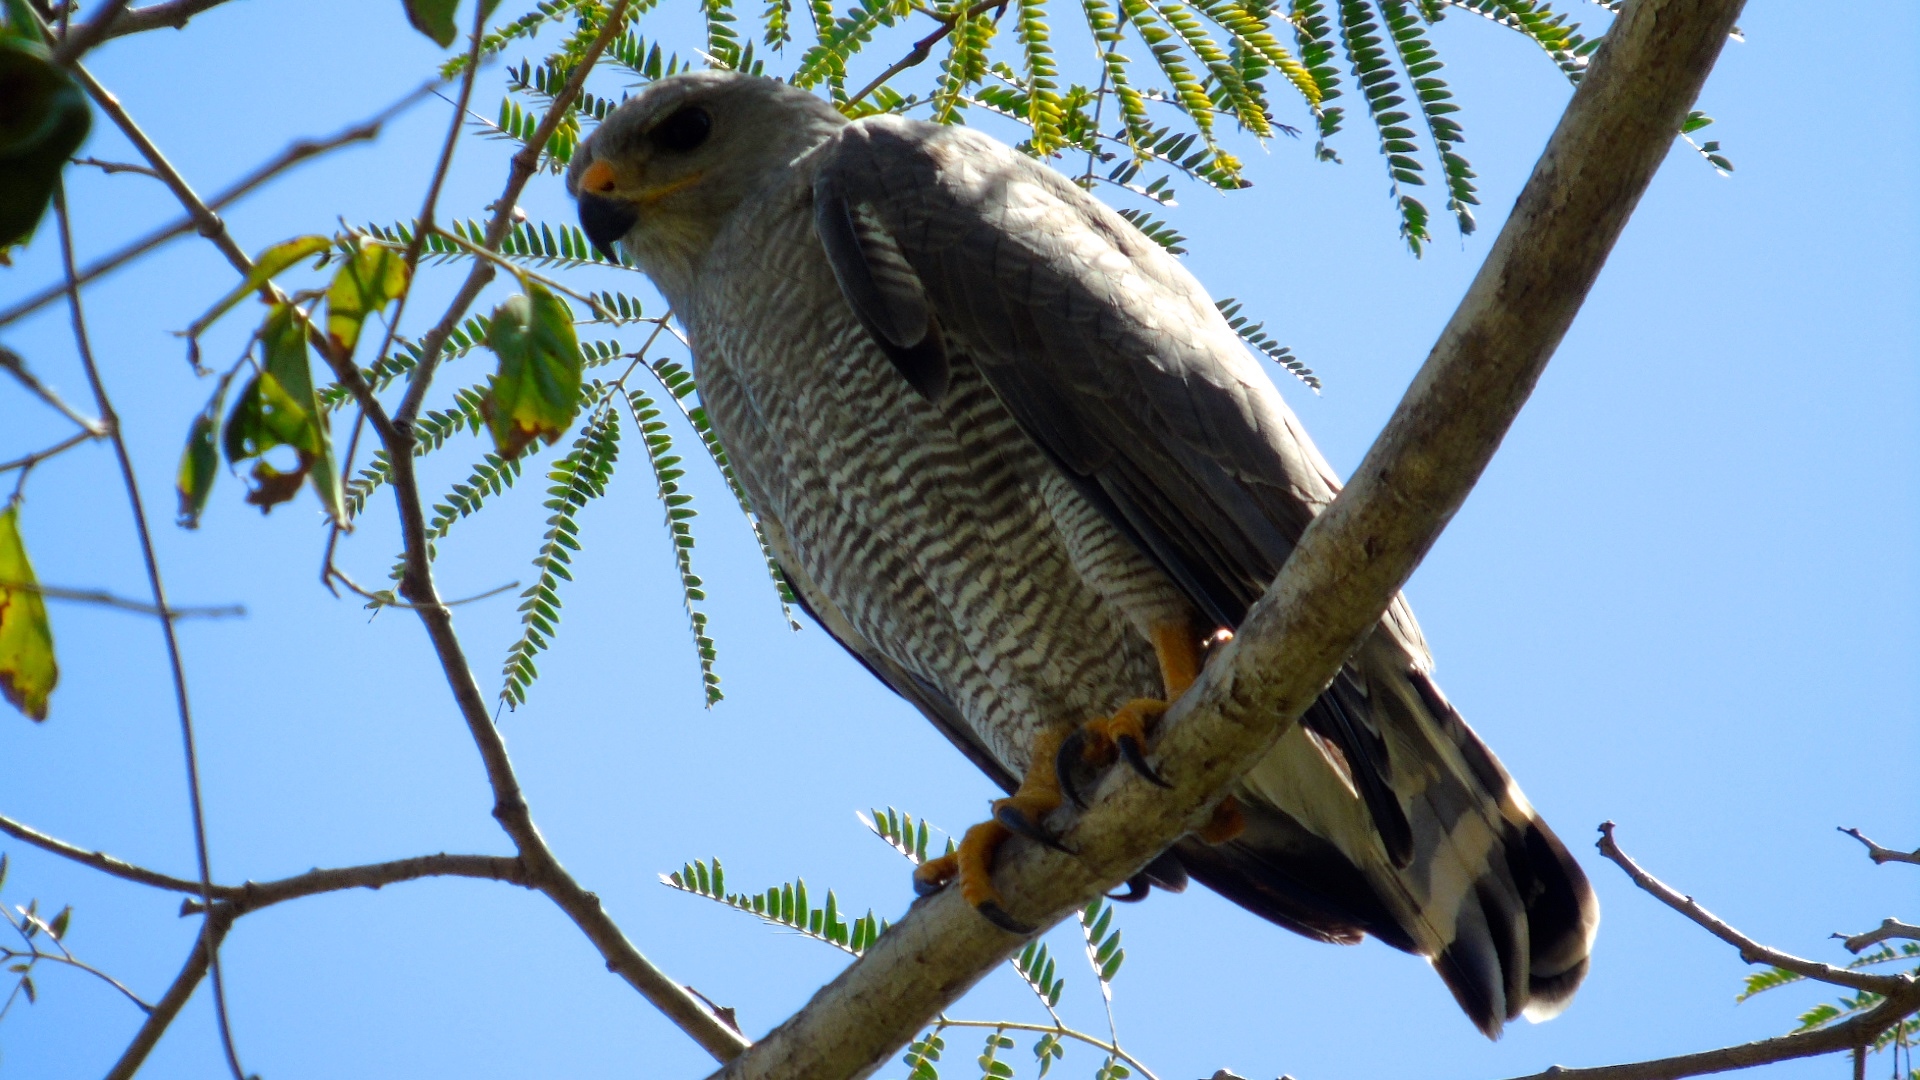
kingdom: Animalia
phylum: Chordata
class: Aves
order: Accipitriformes
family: Accipitridae
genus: Buteo
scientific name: Buteo nitidus
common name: Grey-lined hawk
